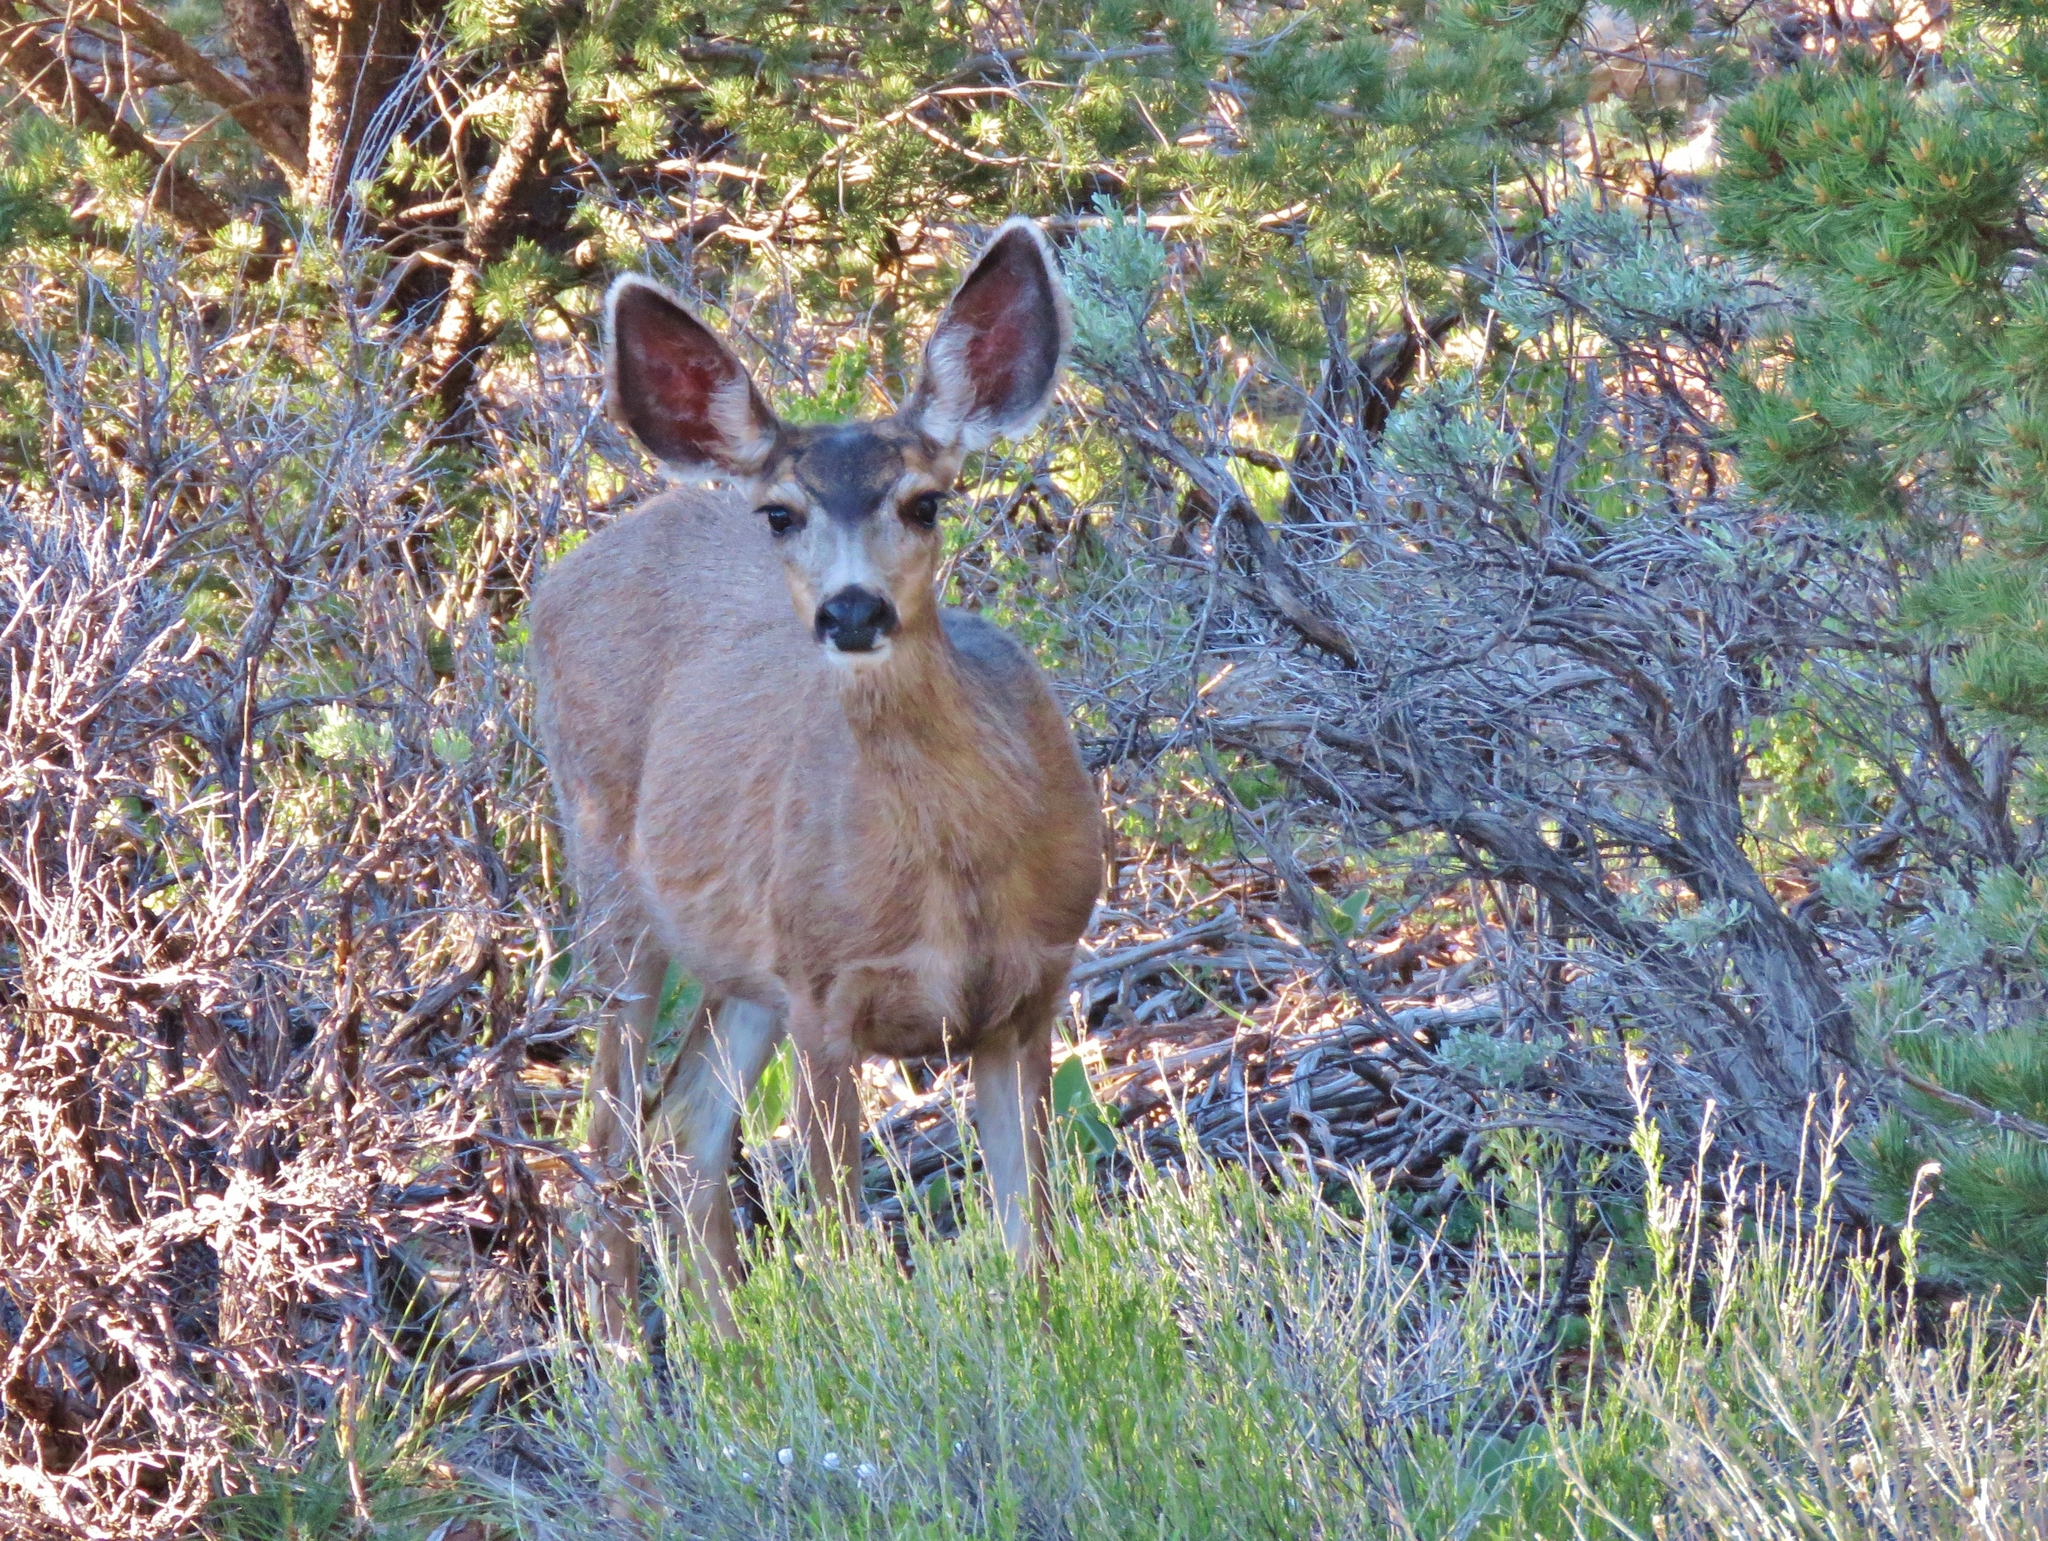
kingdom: Animalia
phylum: Chordata
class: Mammalia
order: Artiodactyla
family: Cervidae
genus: Odocoileus
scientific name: Odocoileus hemionus
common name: Mule deer
